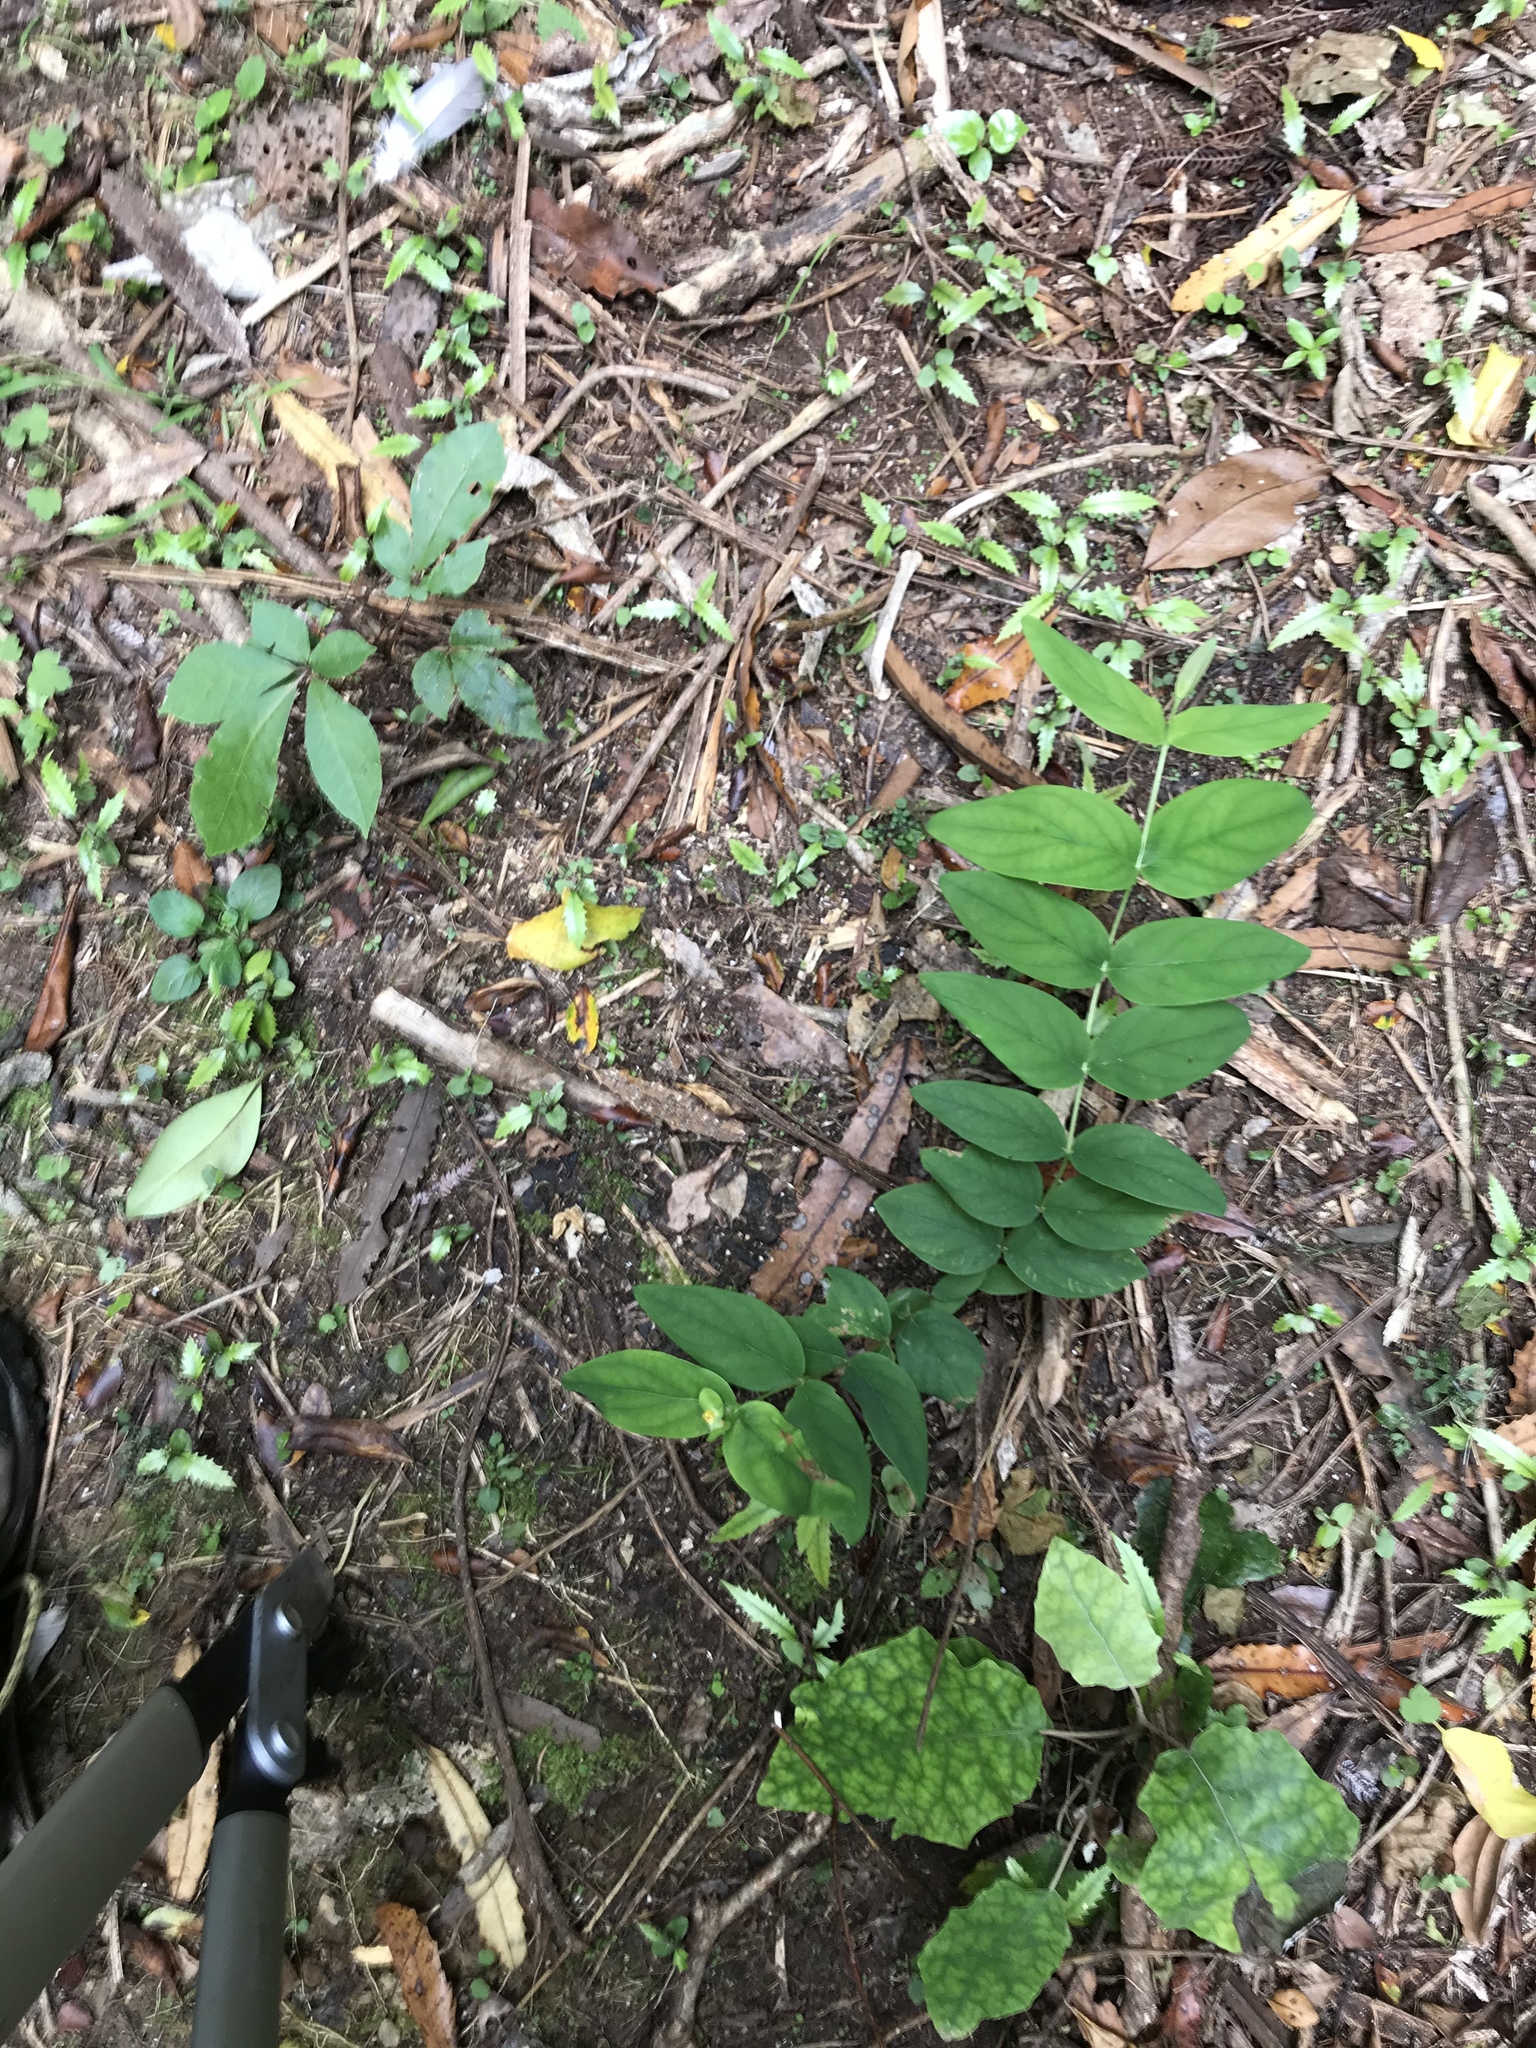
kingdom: Plantae
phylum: Tracheophyta
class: Magnoliopsida
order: Malpighiales
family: Hypericaceae
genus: Hypericum
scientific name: Hypericum androsaemum
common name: Sweet-amber
